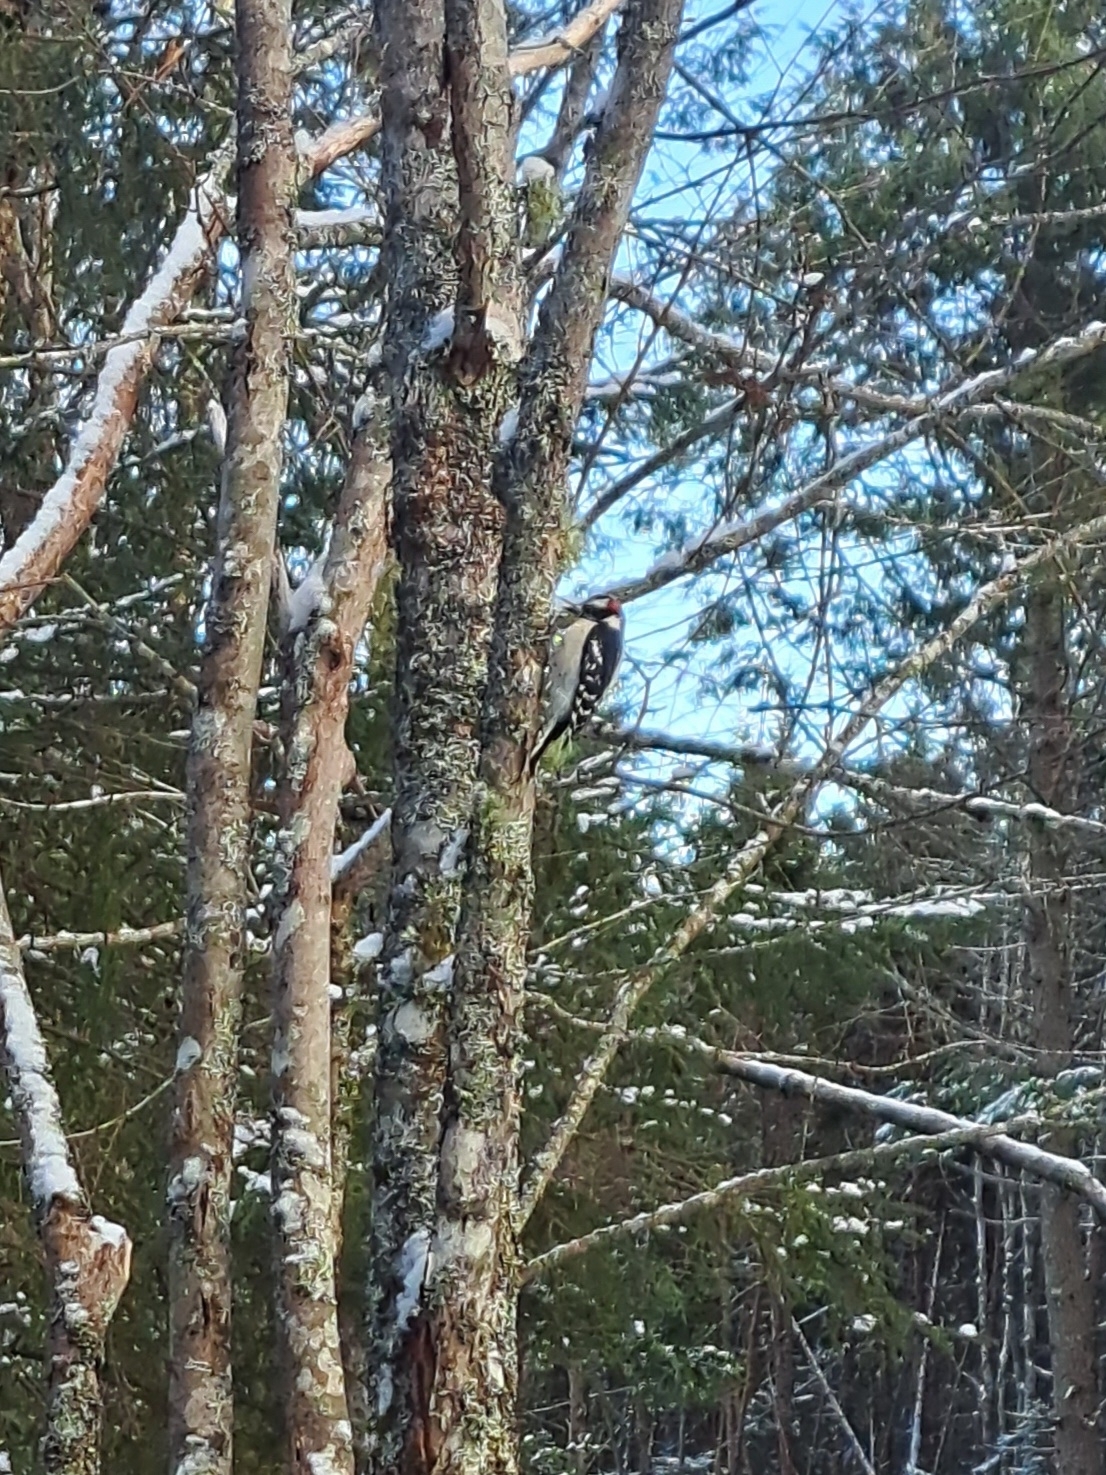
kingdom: Animalia
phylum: Chordata
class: Aves
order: Piciformes
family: Picidae
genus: Dryobates
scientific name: Dryobates pubescens
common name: Downy woodpecker
